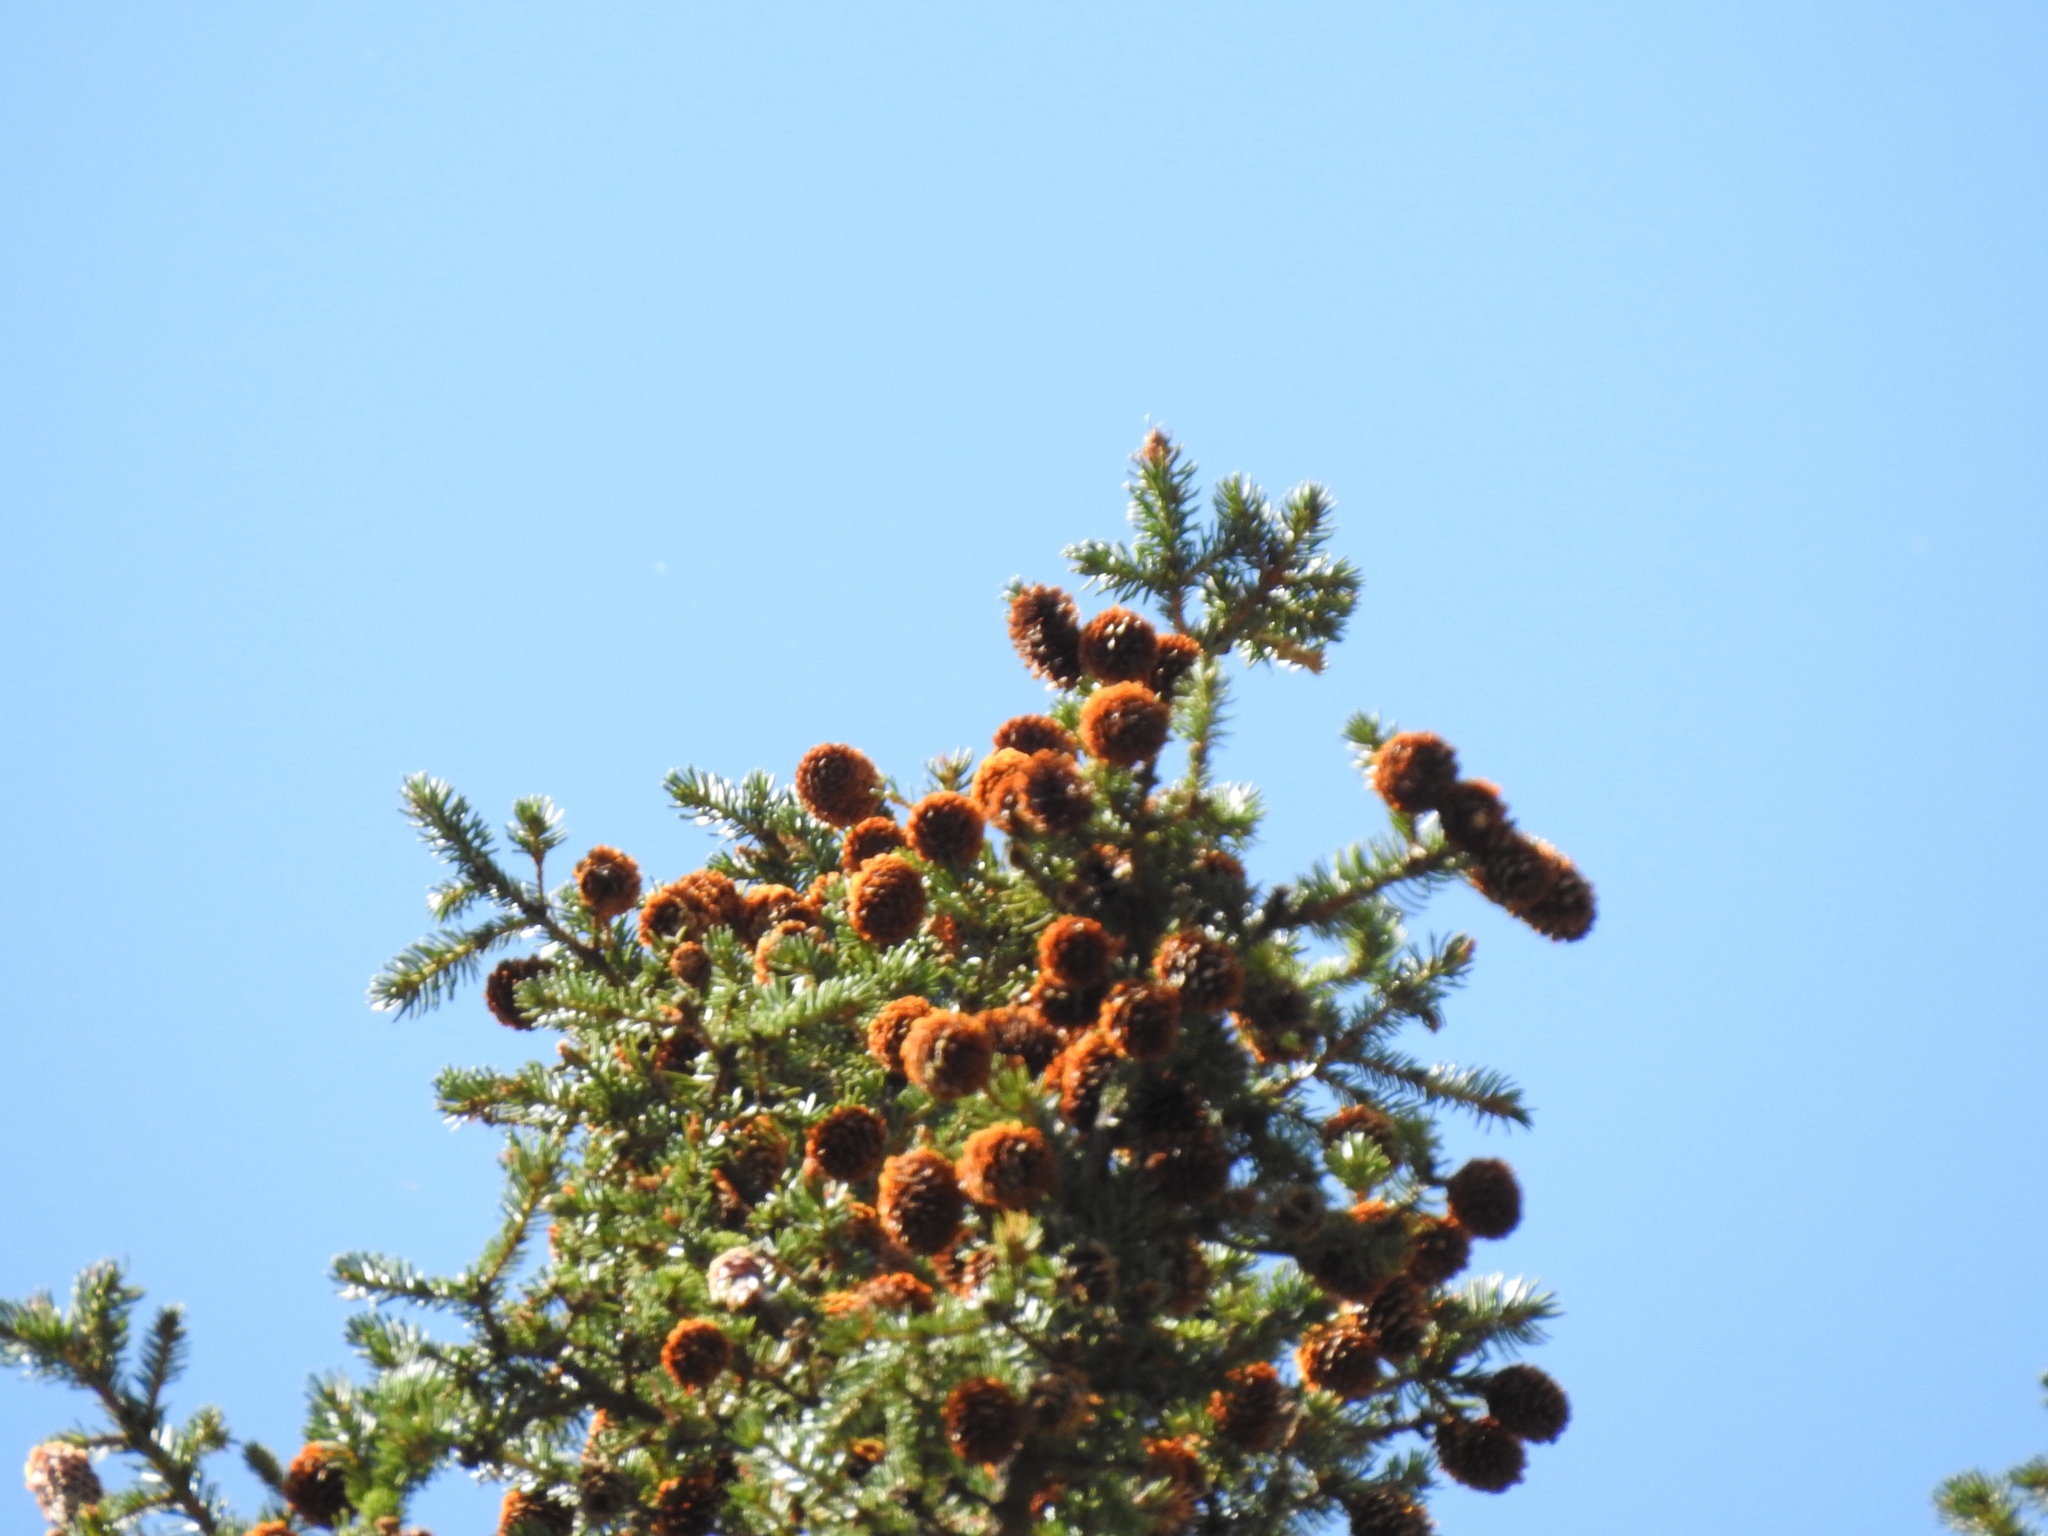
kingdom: Plantae
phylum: Tracheophyta
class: Pinopsida
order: Pinales
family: Pinaceae
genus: Picea
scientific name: Picea engelmannii
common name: Engelmann spruce
